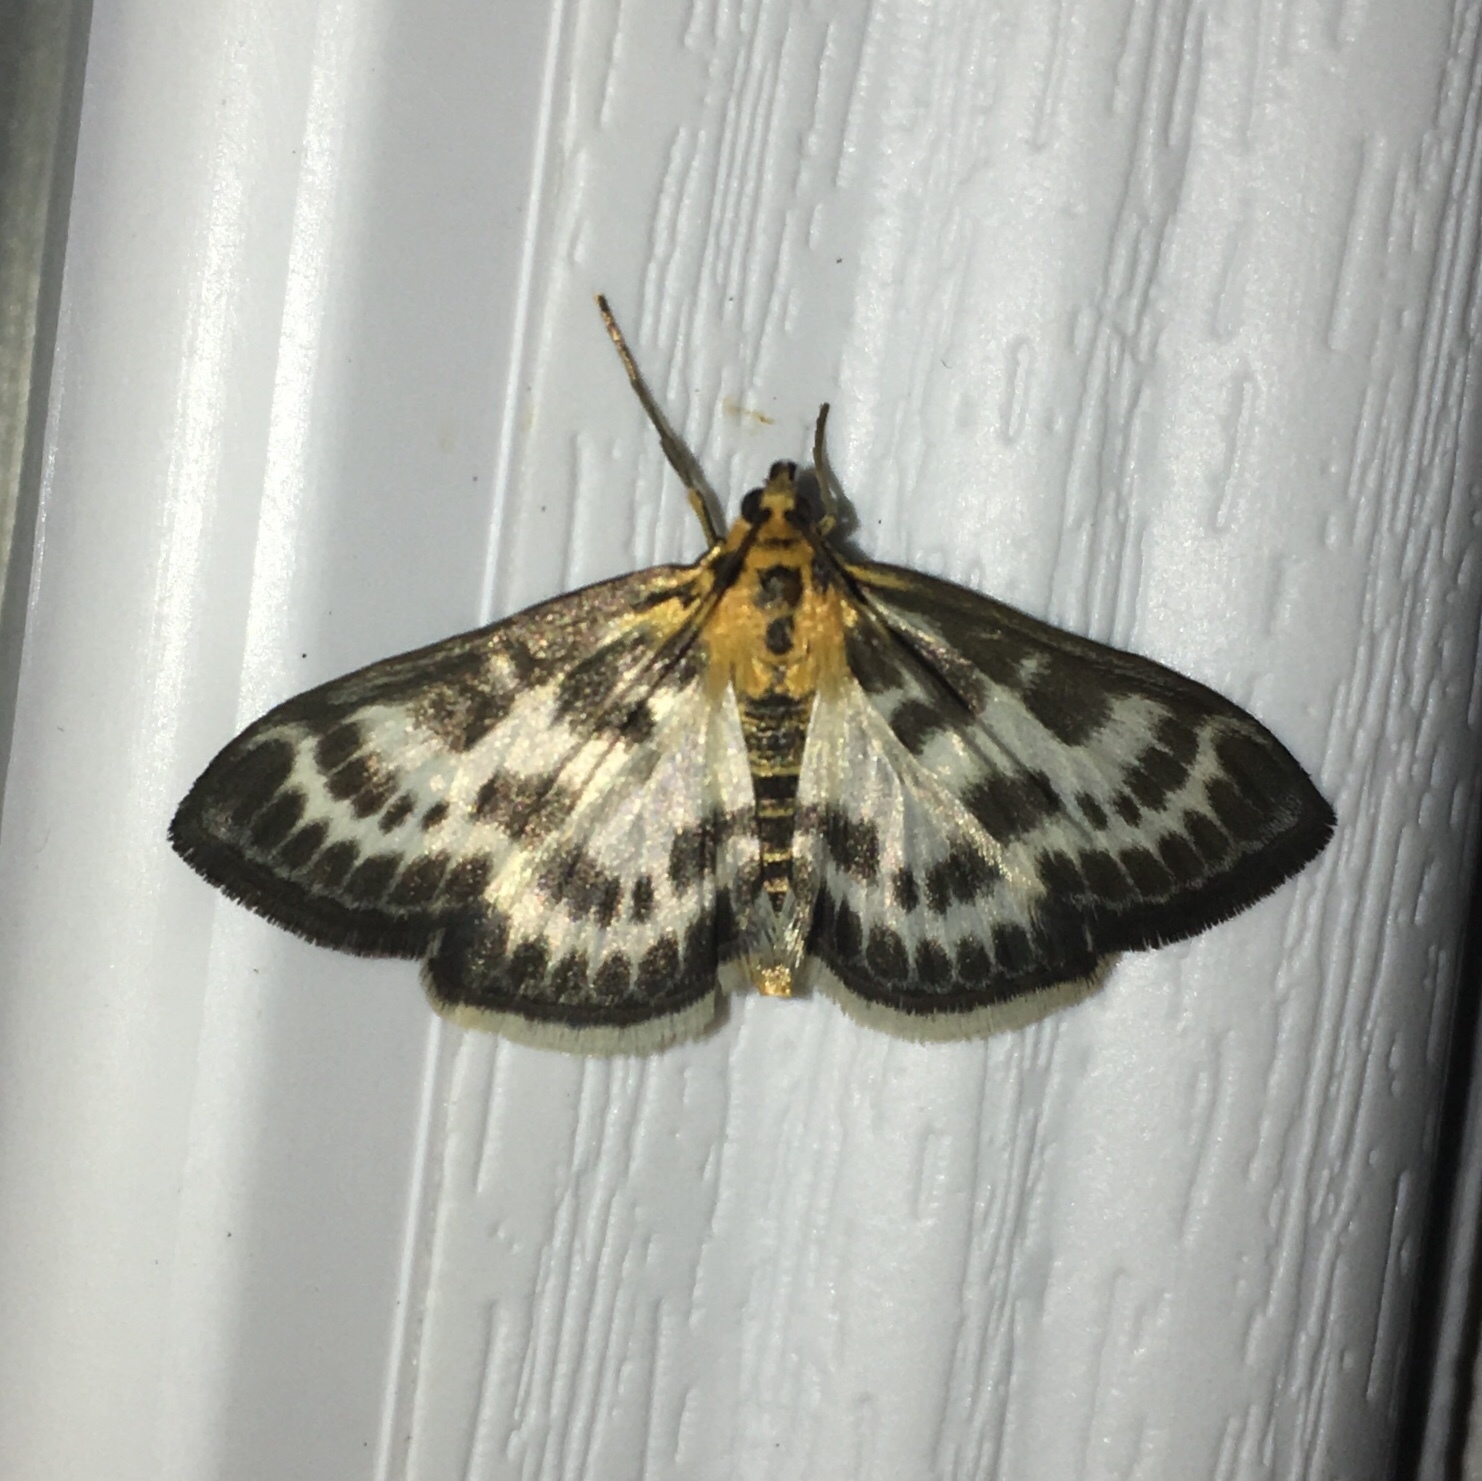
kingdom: Animalia
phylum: Arthropoda
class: Insecta
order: Lepidoptera
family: Crambidae
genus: Anania
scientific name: Anania hortulata
